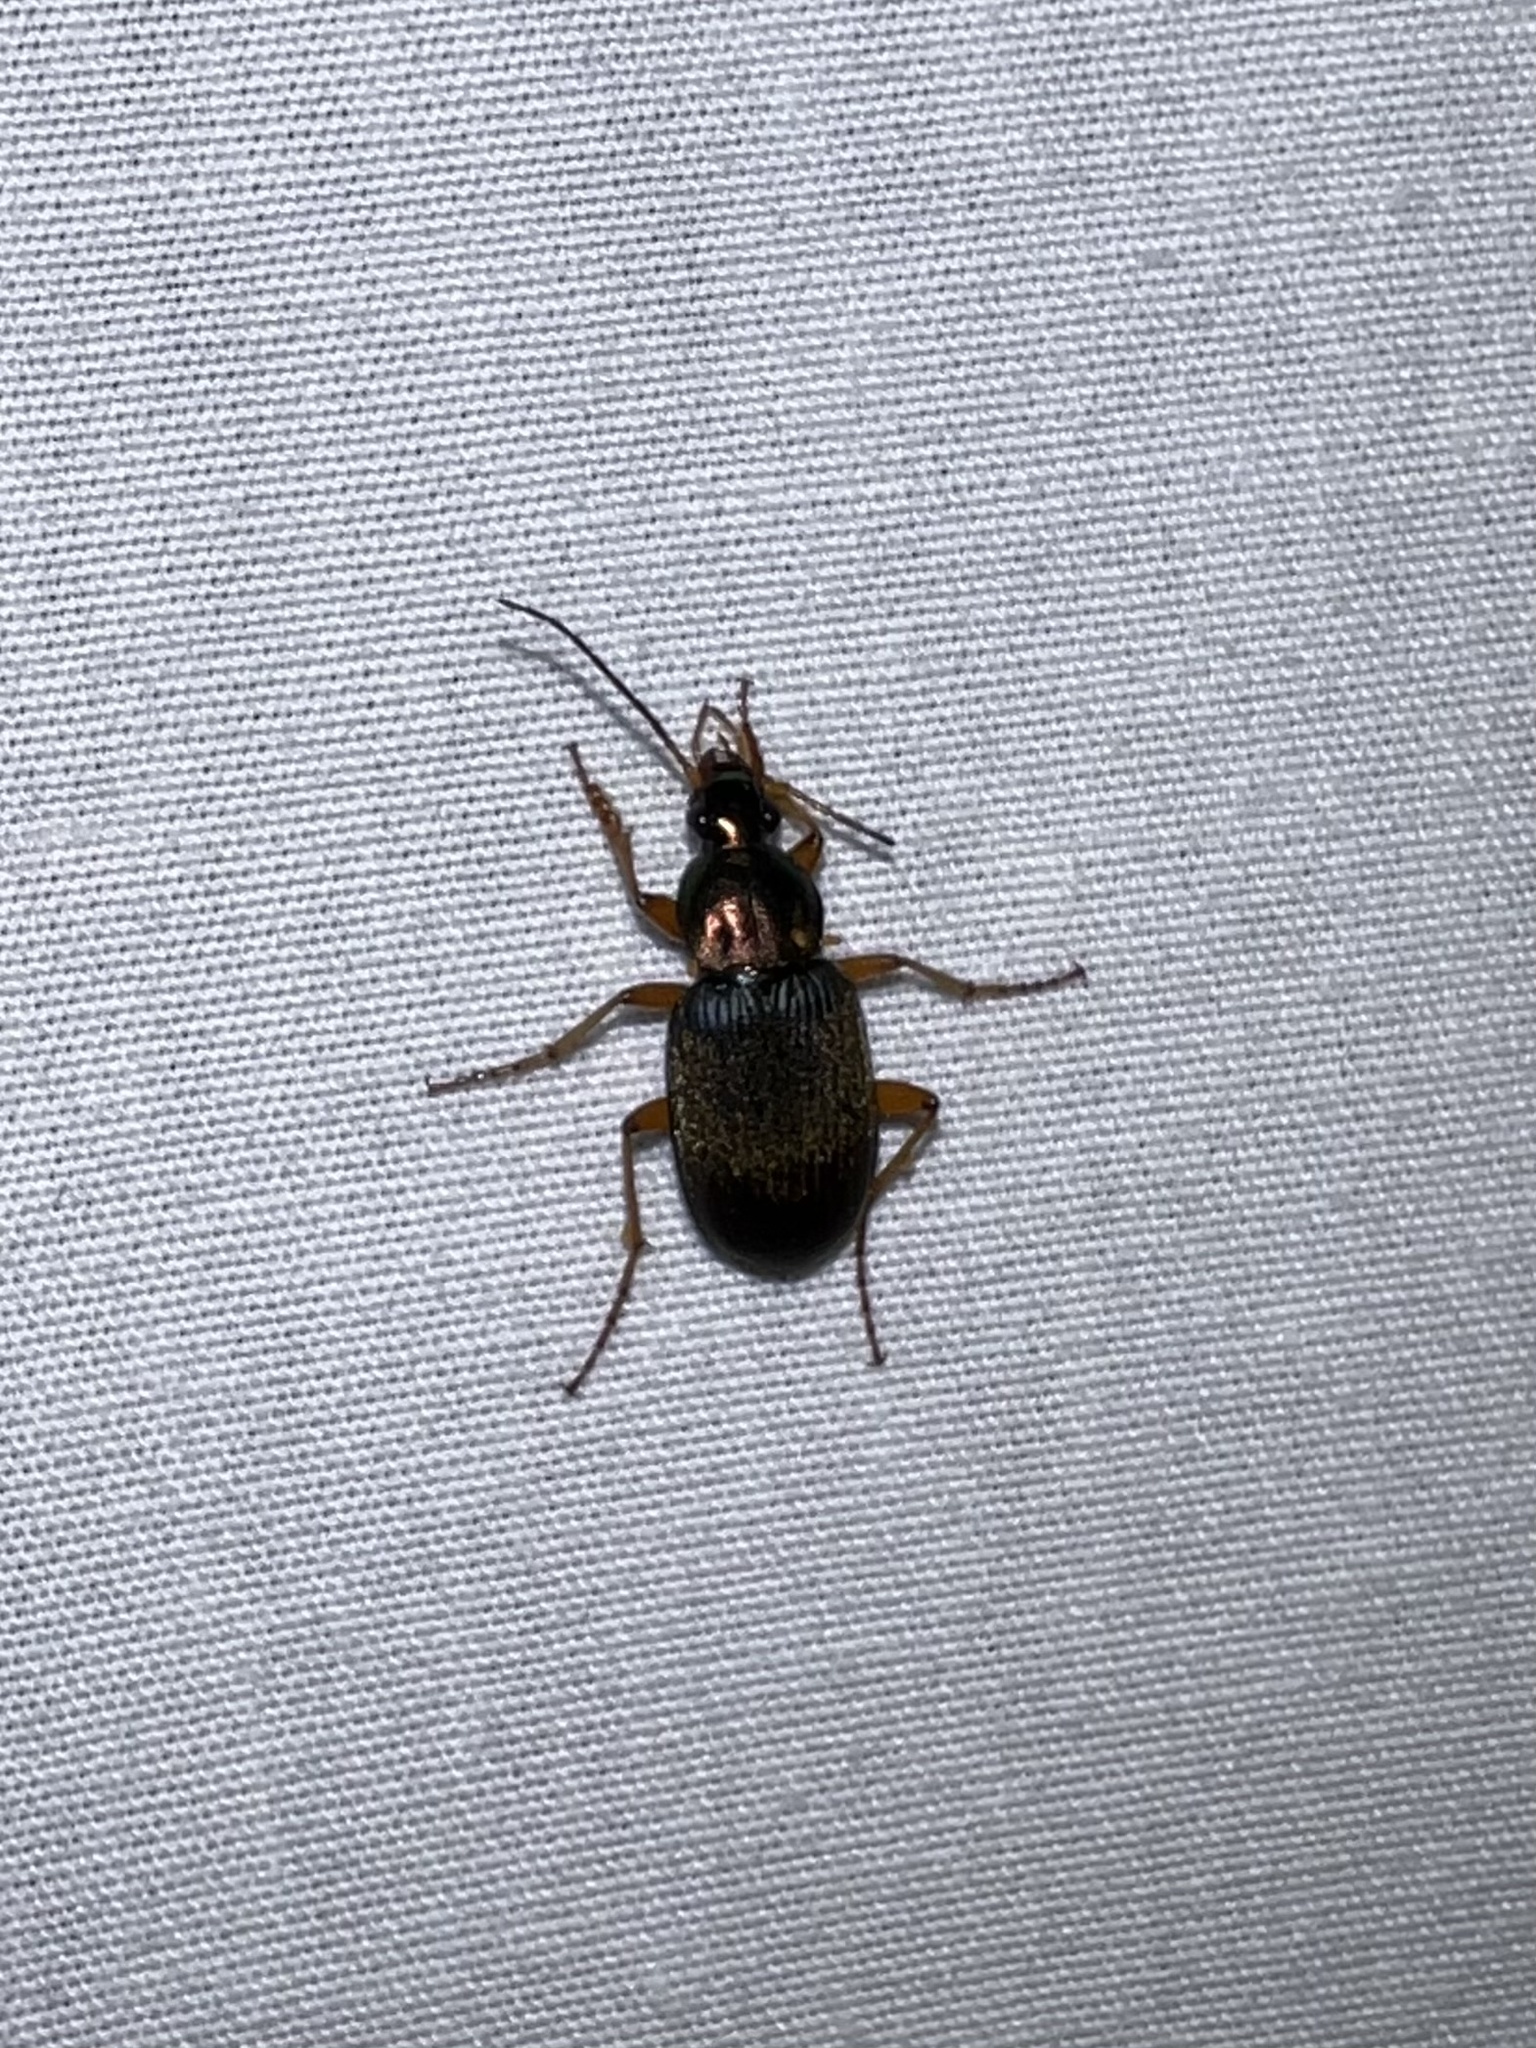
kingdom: Animalia
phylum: Arthropoda
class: Insecta
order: Coleoptera
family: Carabidae
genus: Chlaenius
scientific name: Chlaenius tricolor
